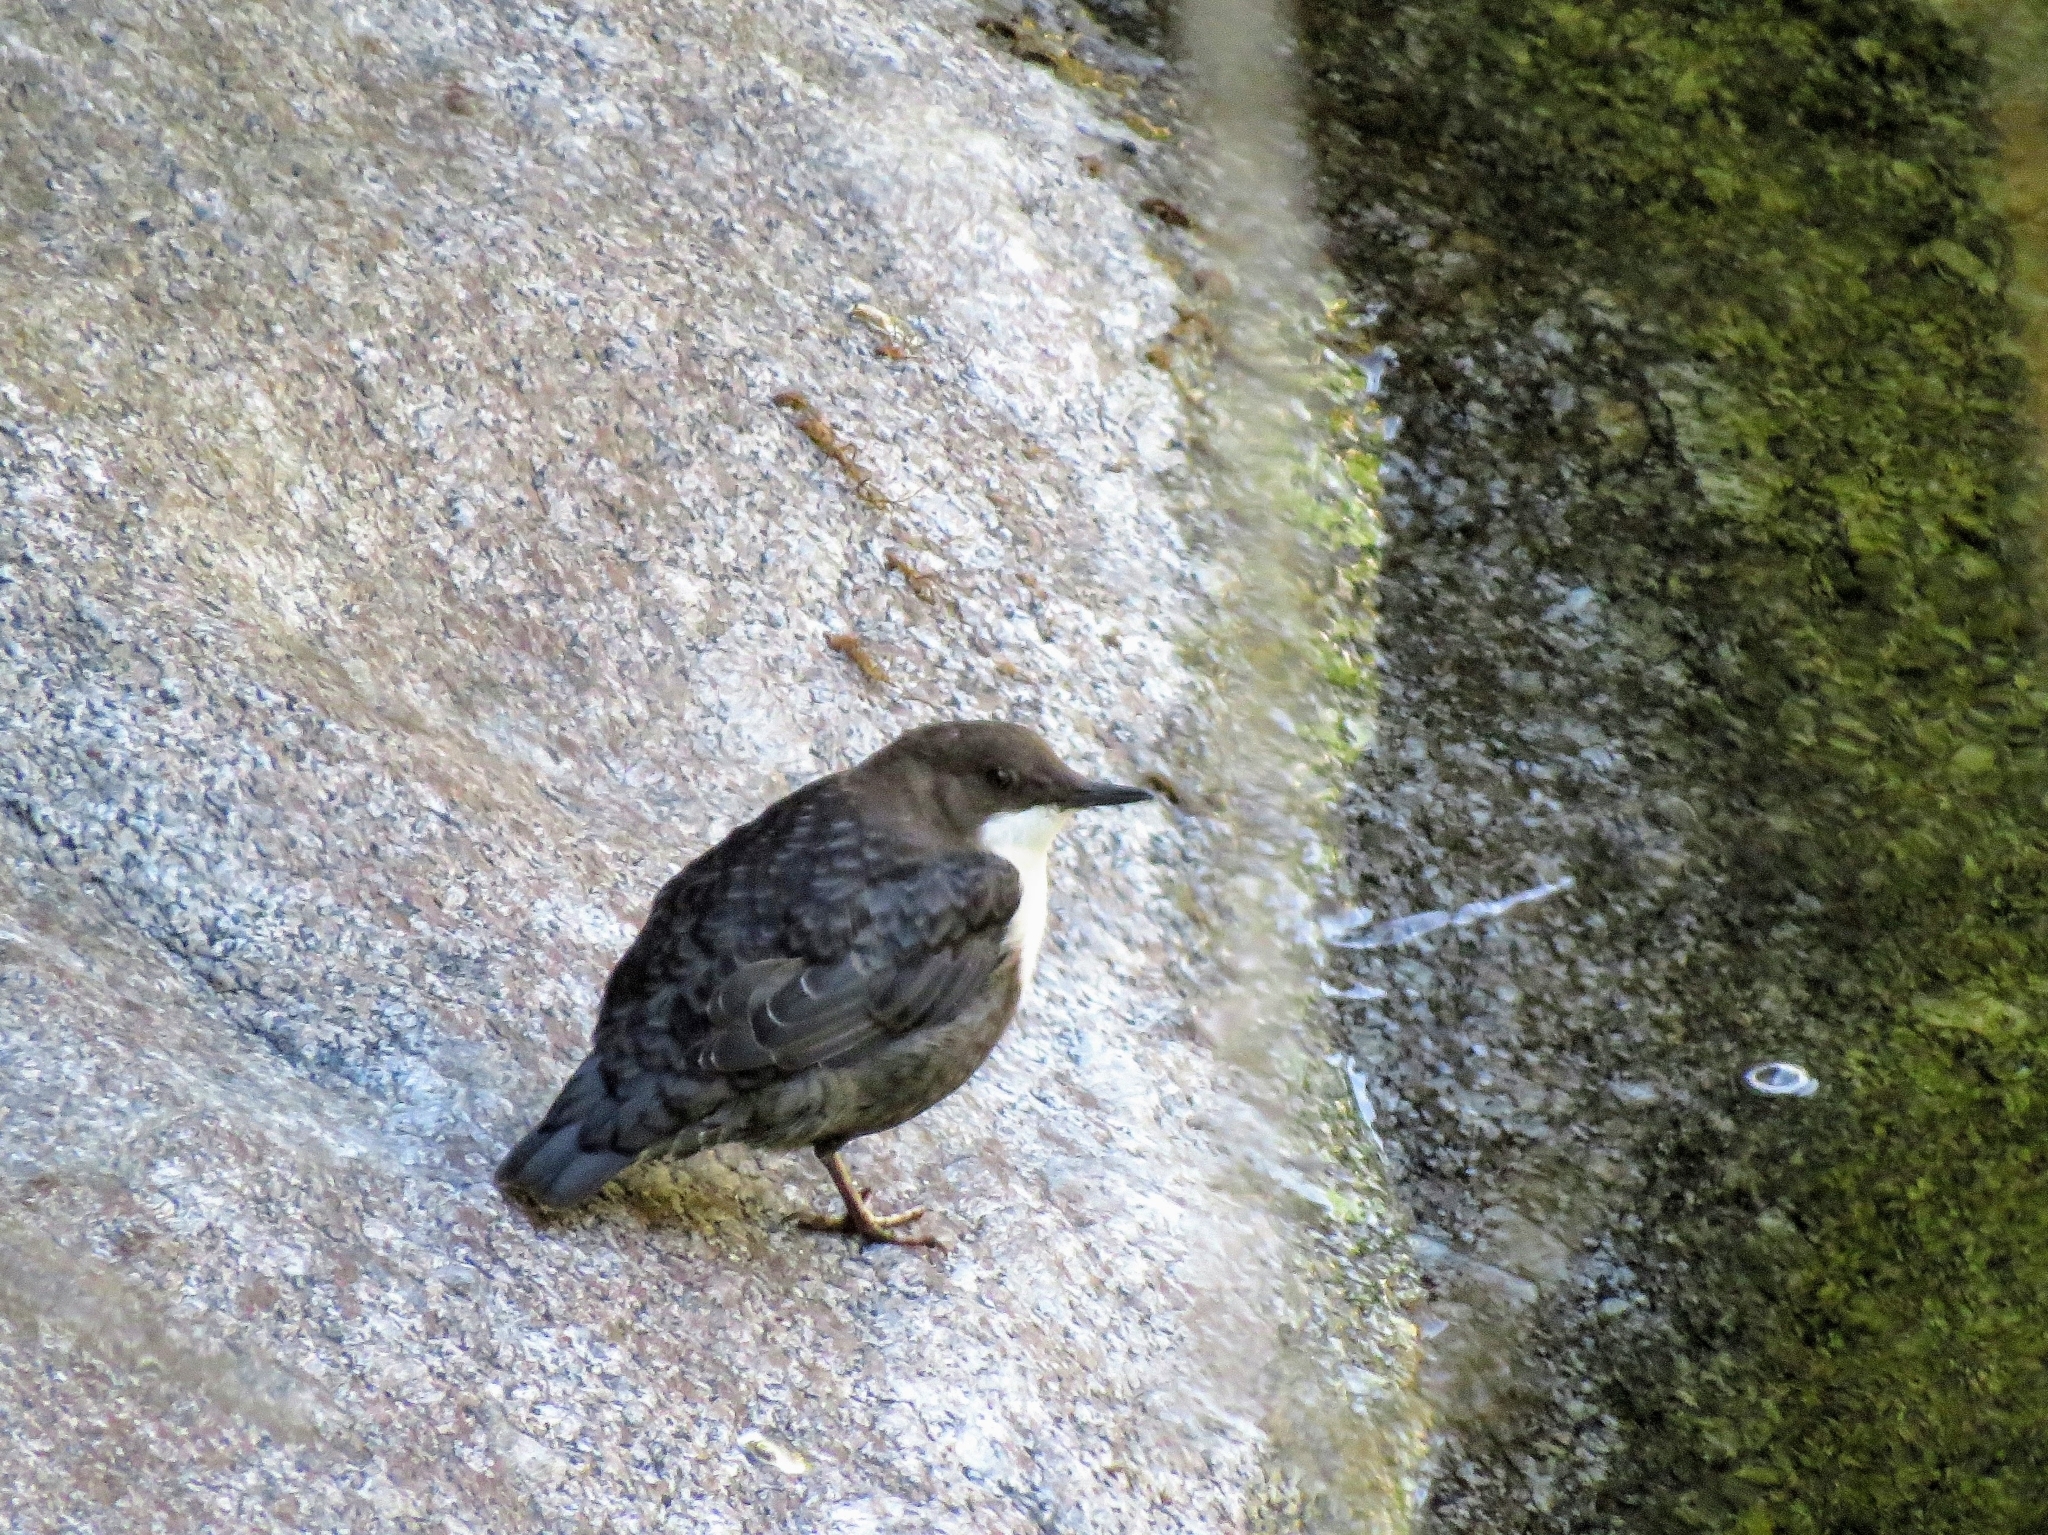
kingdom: Animalia
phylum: Chordata
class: Aves
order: Passeriformes
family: Cinclidae
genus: Cinclus
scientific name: Cinclus cinclus
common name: White-throated dipper
